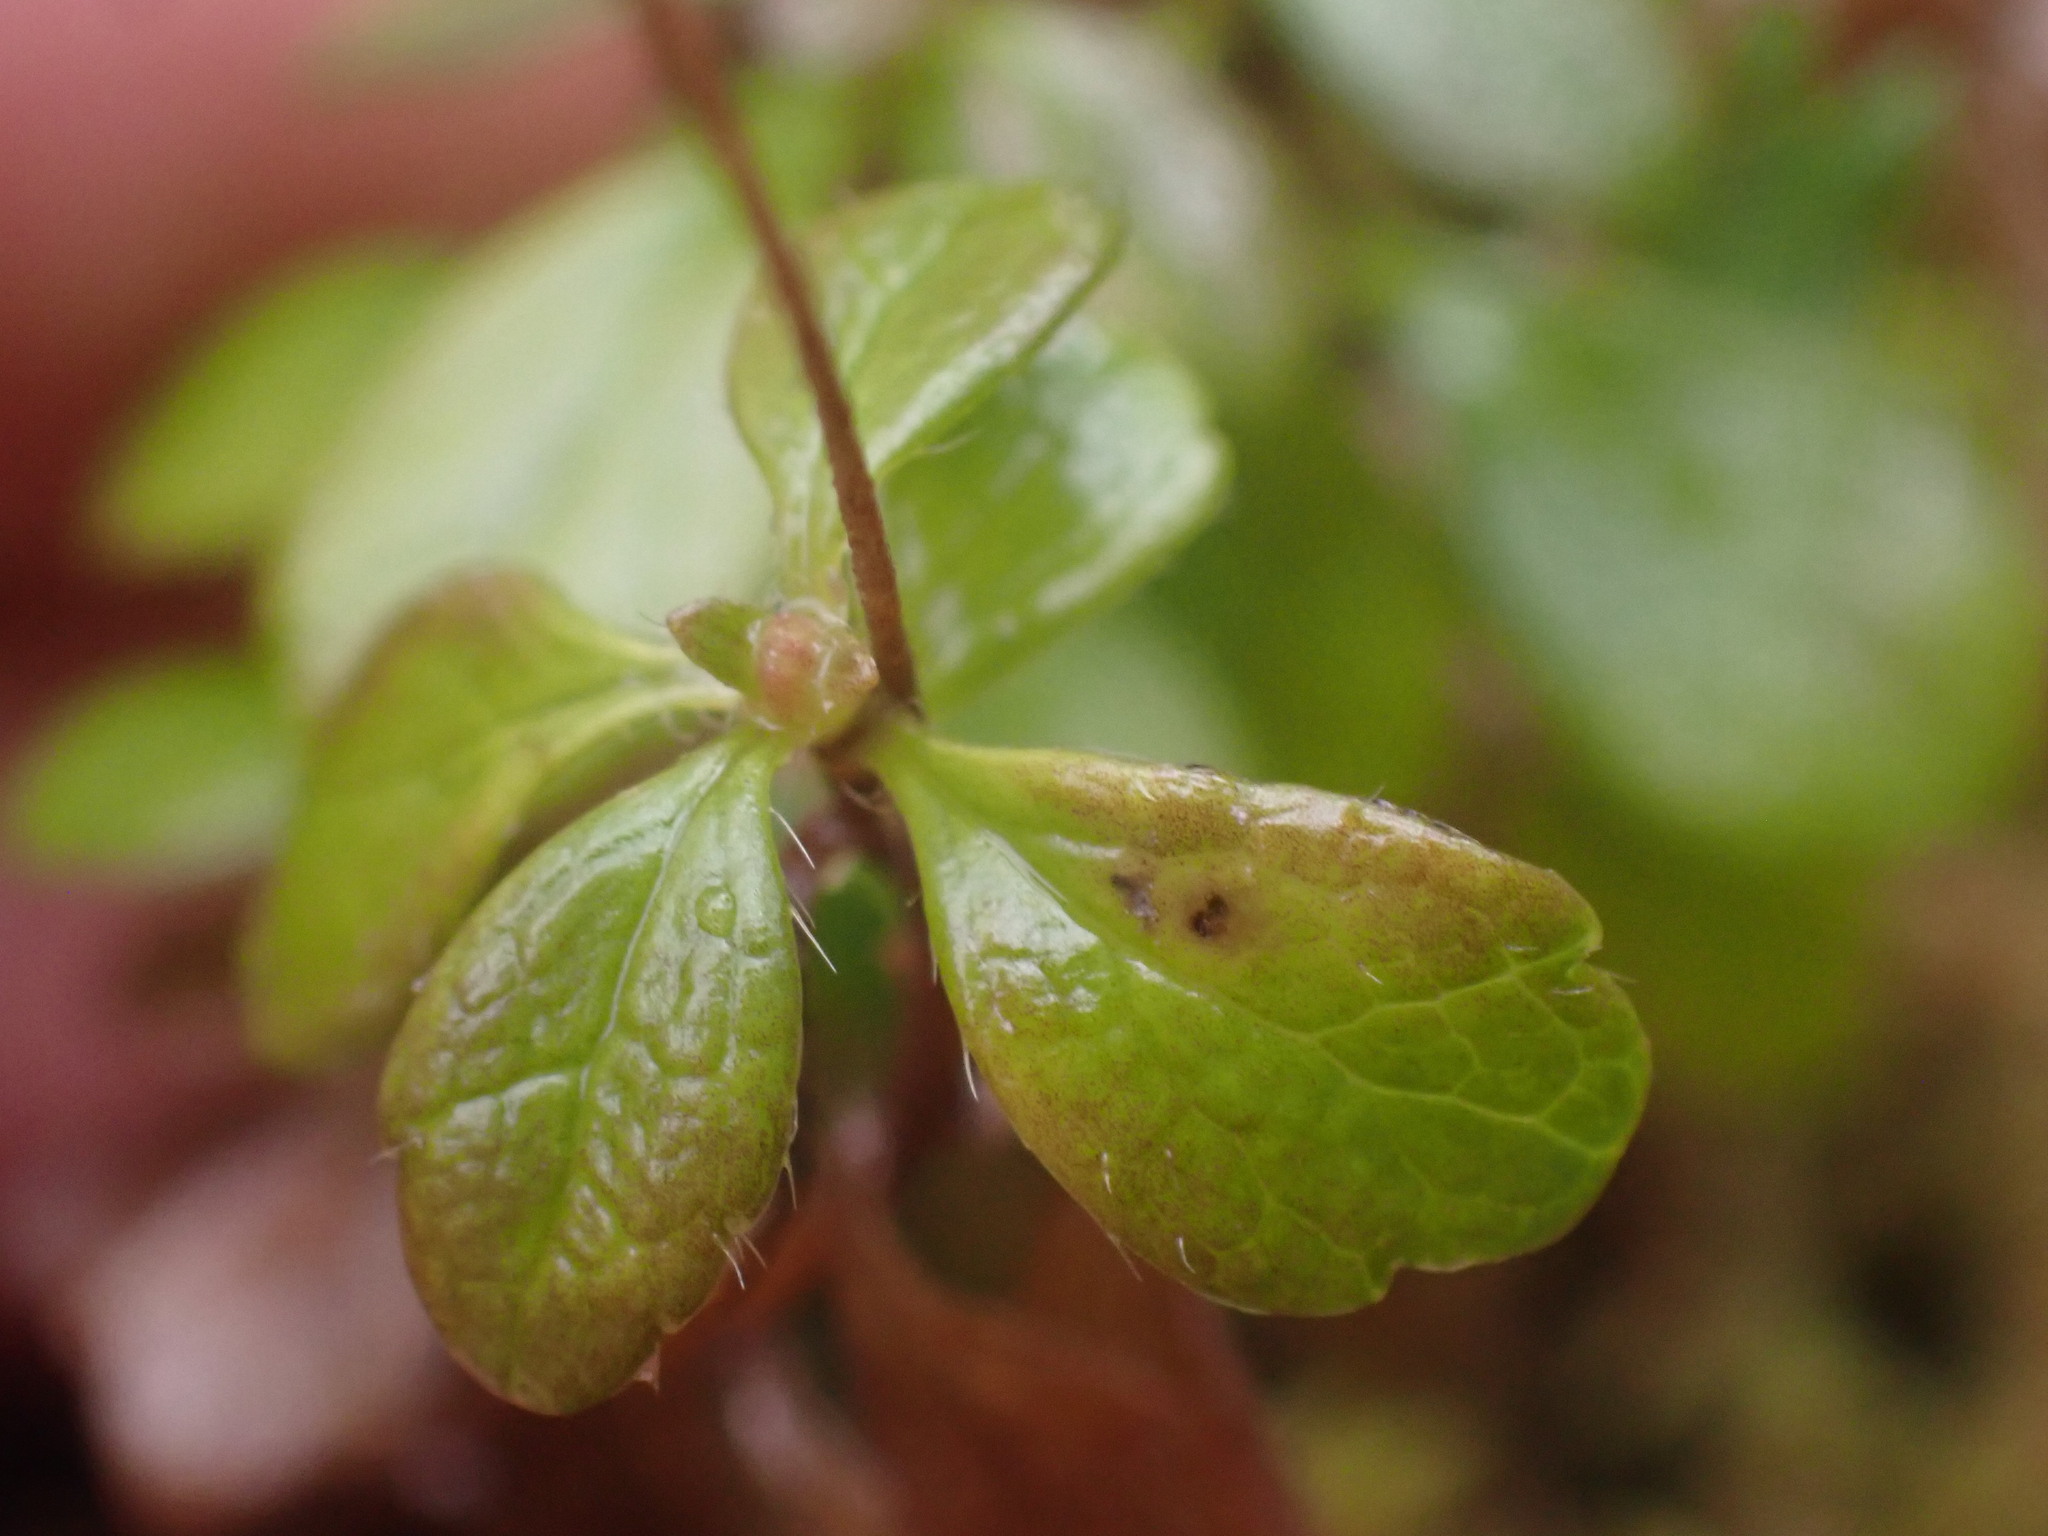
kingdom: Plantae
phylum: Tracheophyta
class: Magnoliopsida
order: Dipsacales
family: Caprifoliaceae
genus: Linnaea
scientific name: Linnaea borealis
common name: Twinflower
